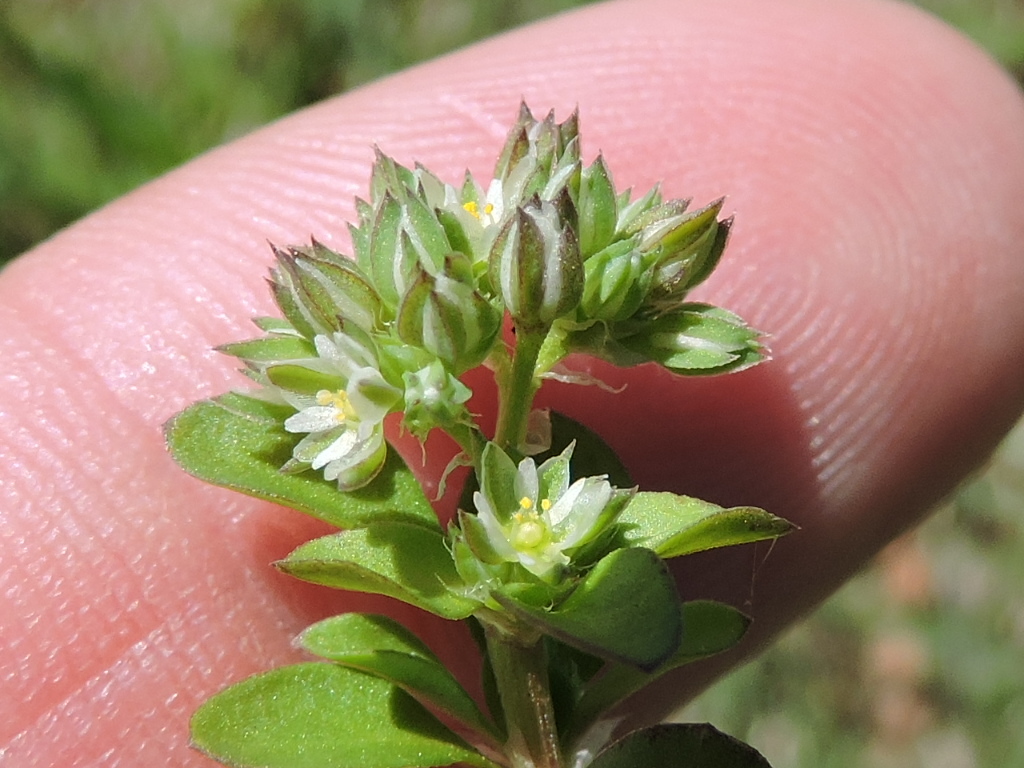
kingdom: Plantae
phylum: Tracheophyta
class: Magnoliopsida
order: Caryophyllales
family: Caryophyllaceae
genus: Polycarpon
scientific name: Polycarpon tetraphyllum
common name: Four-leaved all-seed
